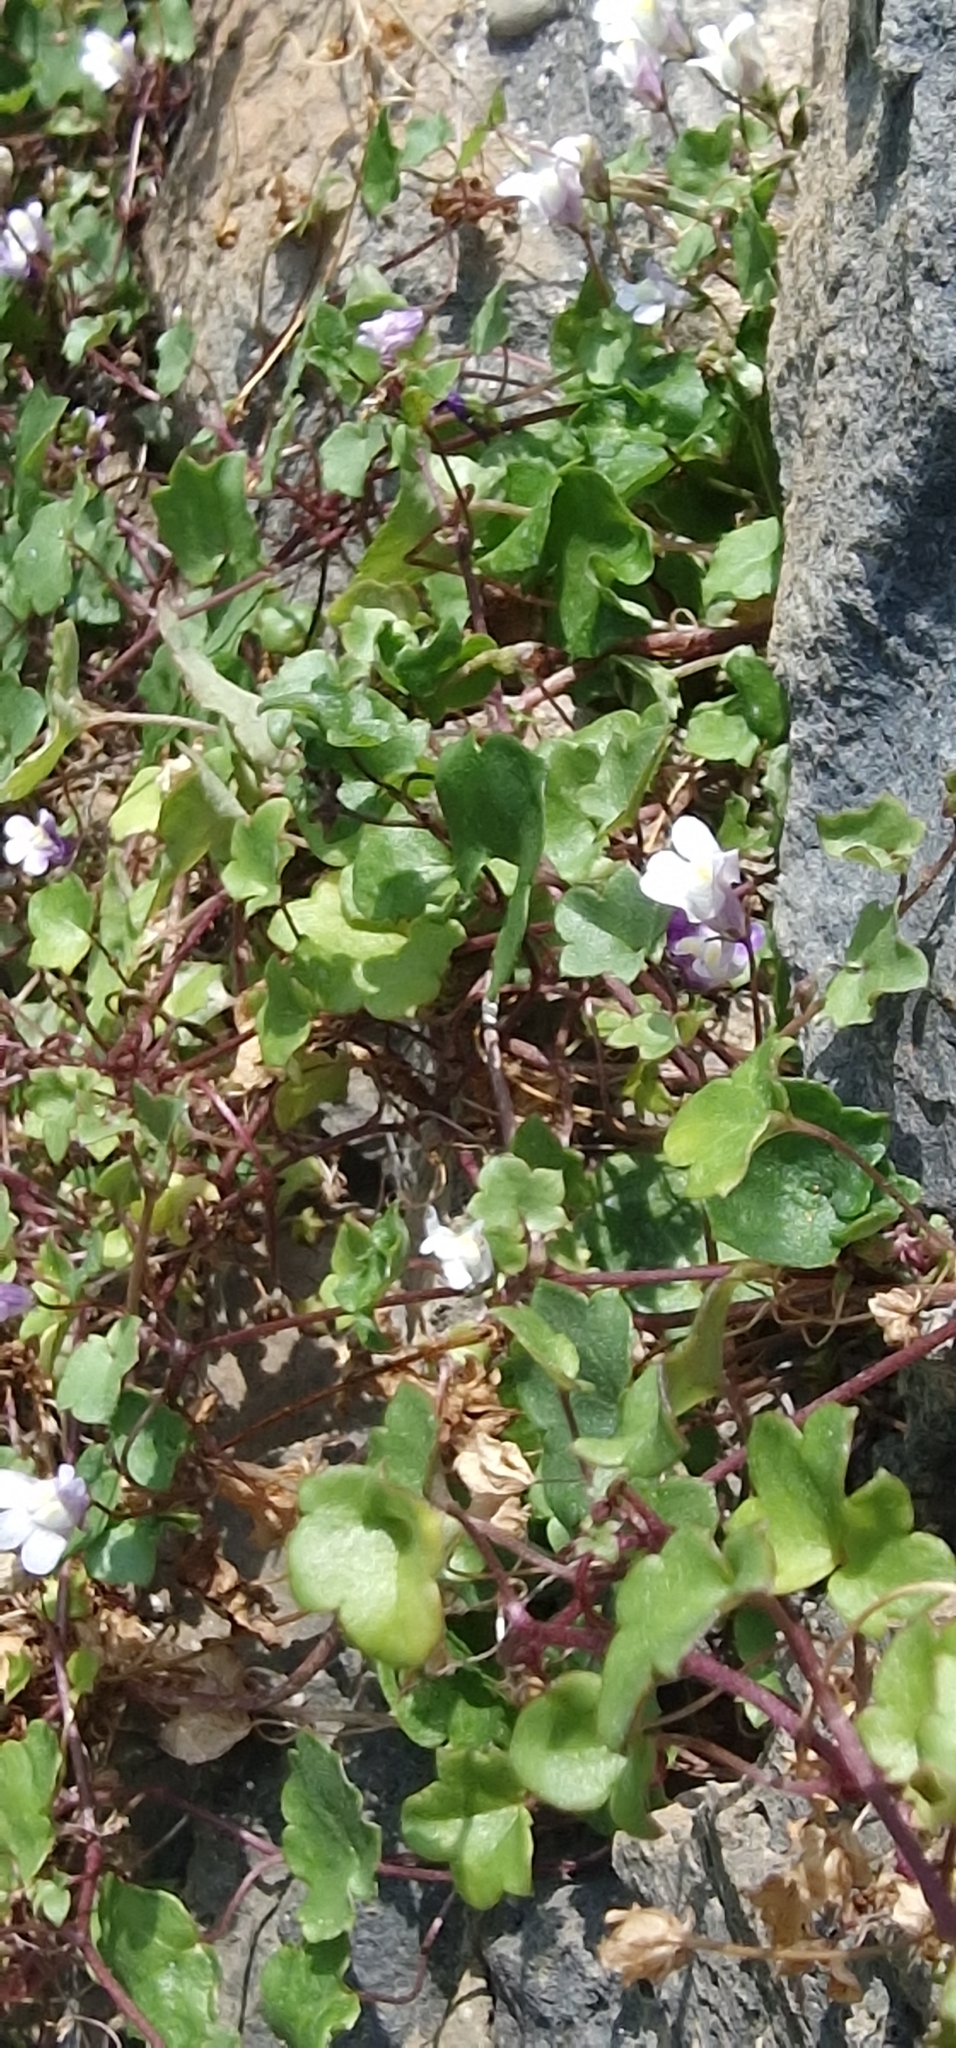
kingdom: Plantae
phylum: Tracheophyta
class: Magnoliopsida
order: Lamiales
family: Plantaginaceae
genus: Cymbalaria
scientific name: Cymbalaria muralis
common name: Ivy-leaved toadflax
